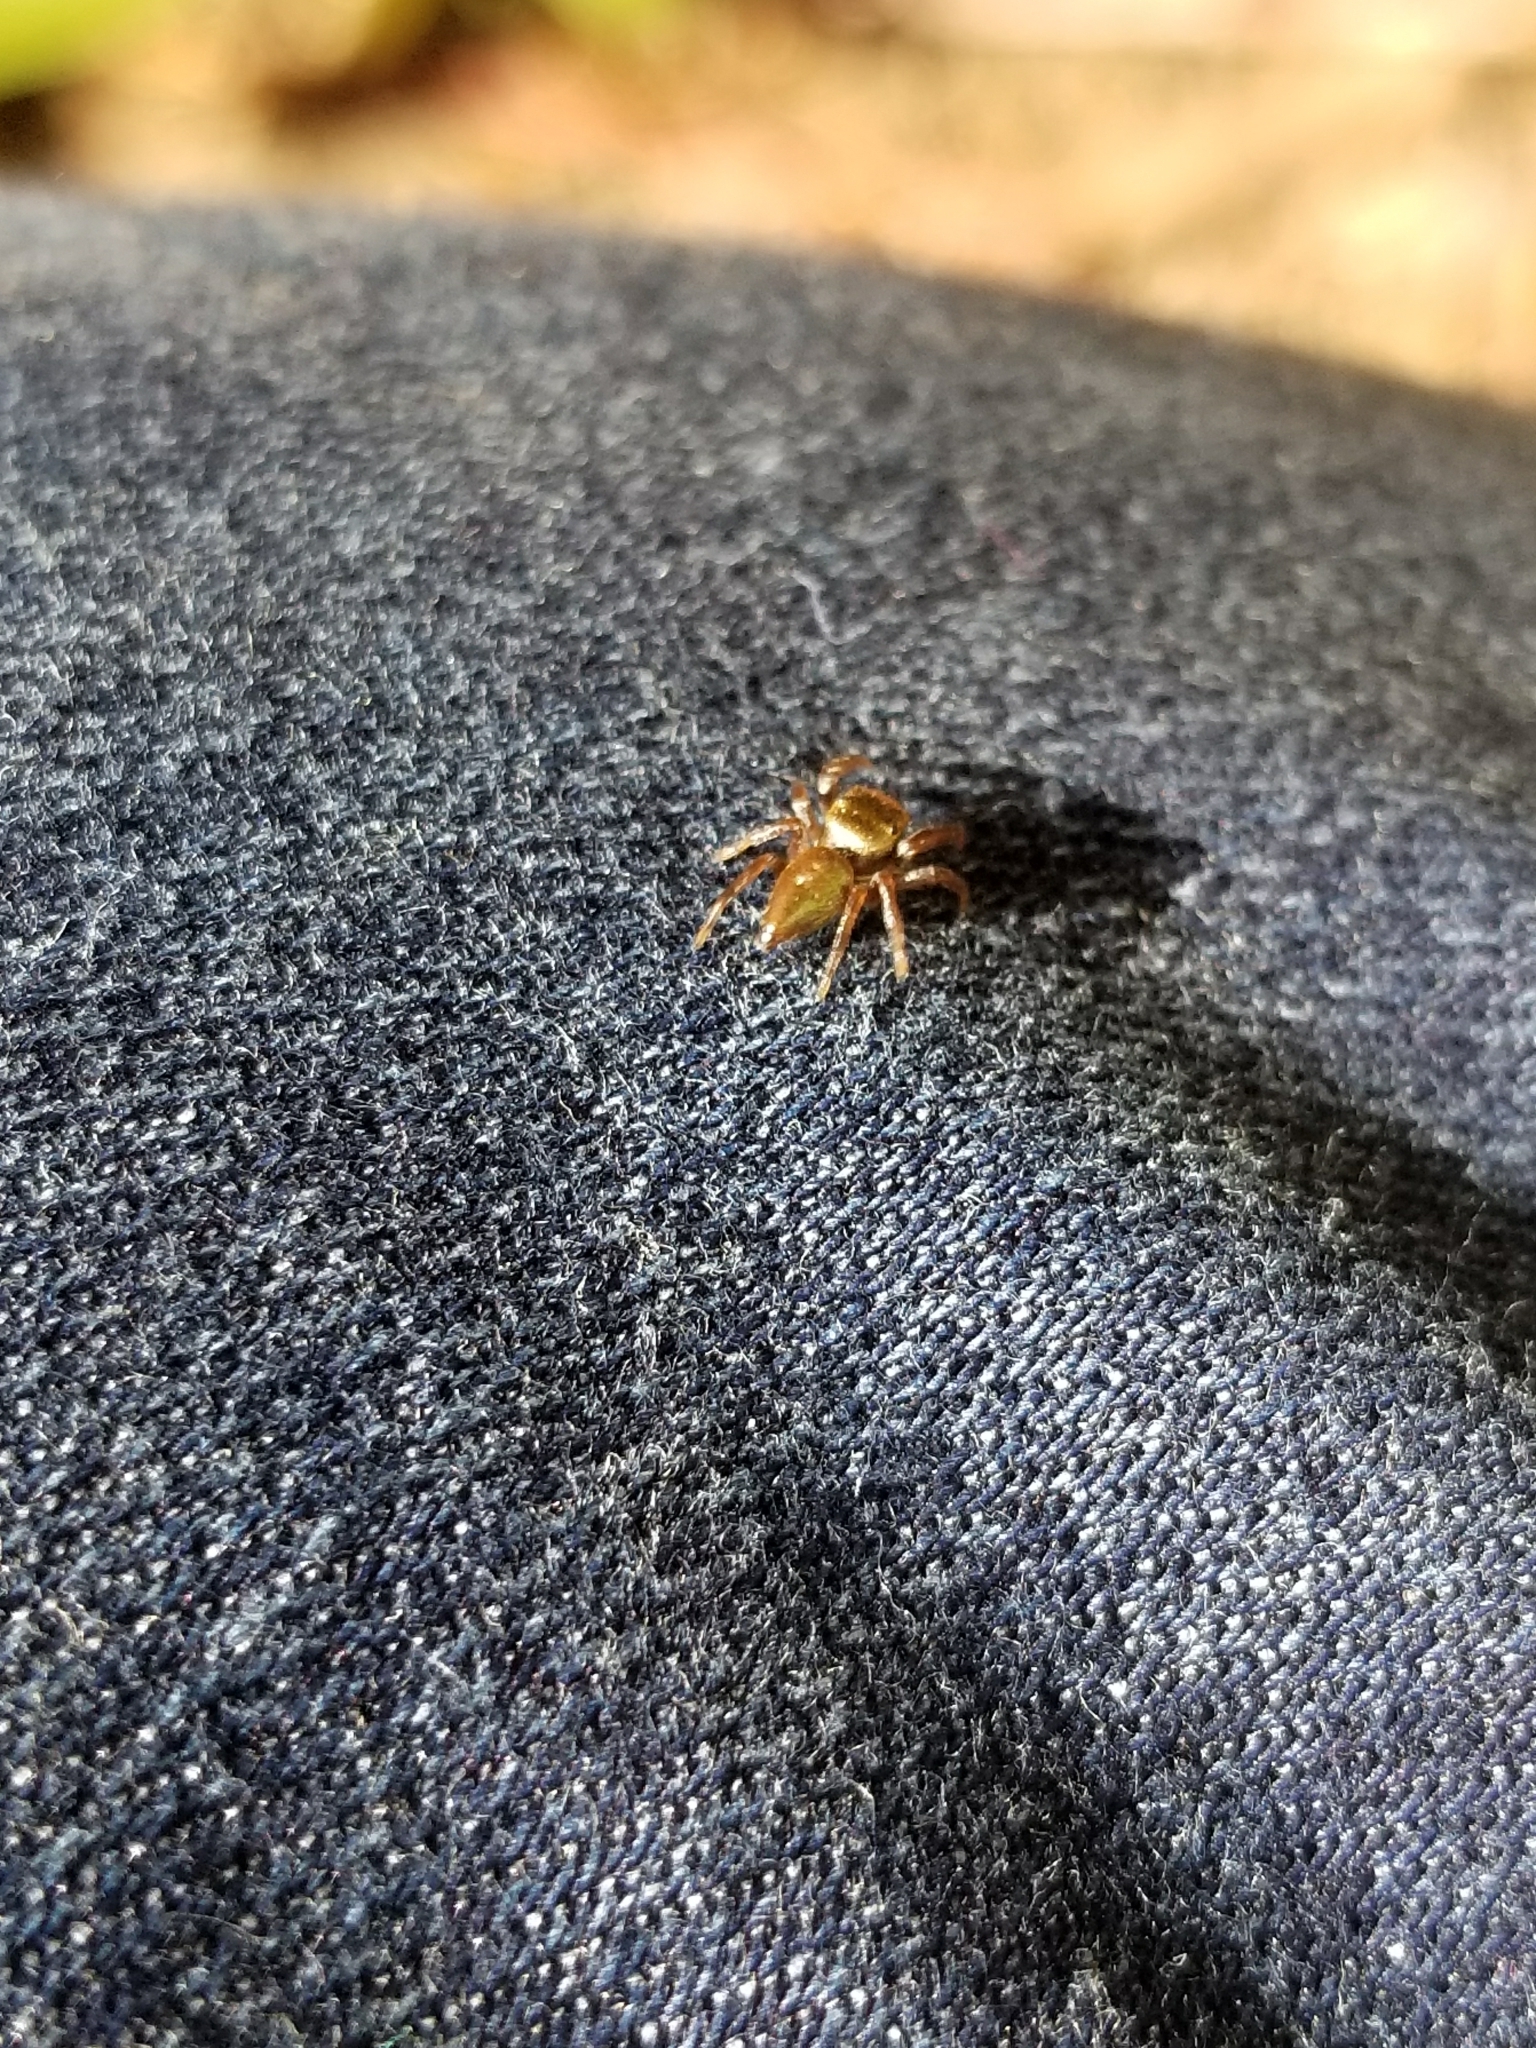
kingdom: Animalia
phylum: Arthropoda
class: Arachnida
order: Araneae
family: Salticidae
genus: Messua
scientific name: Messua limbata
